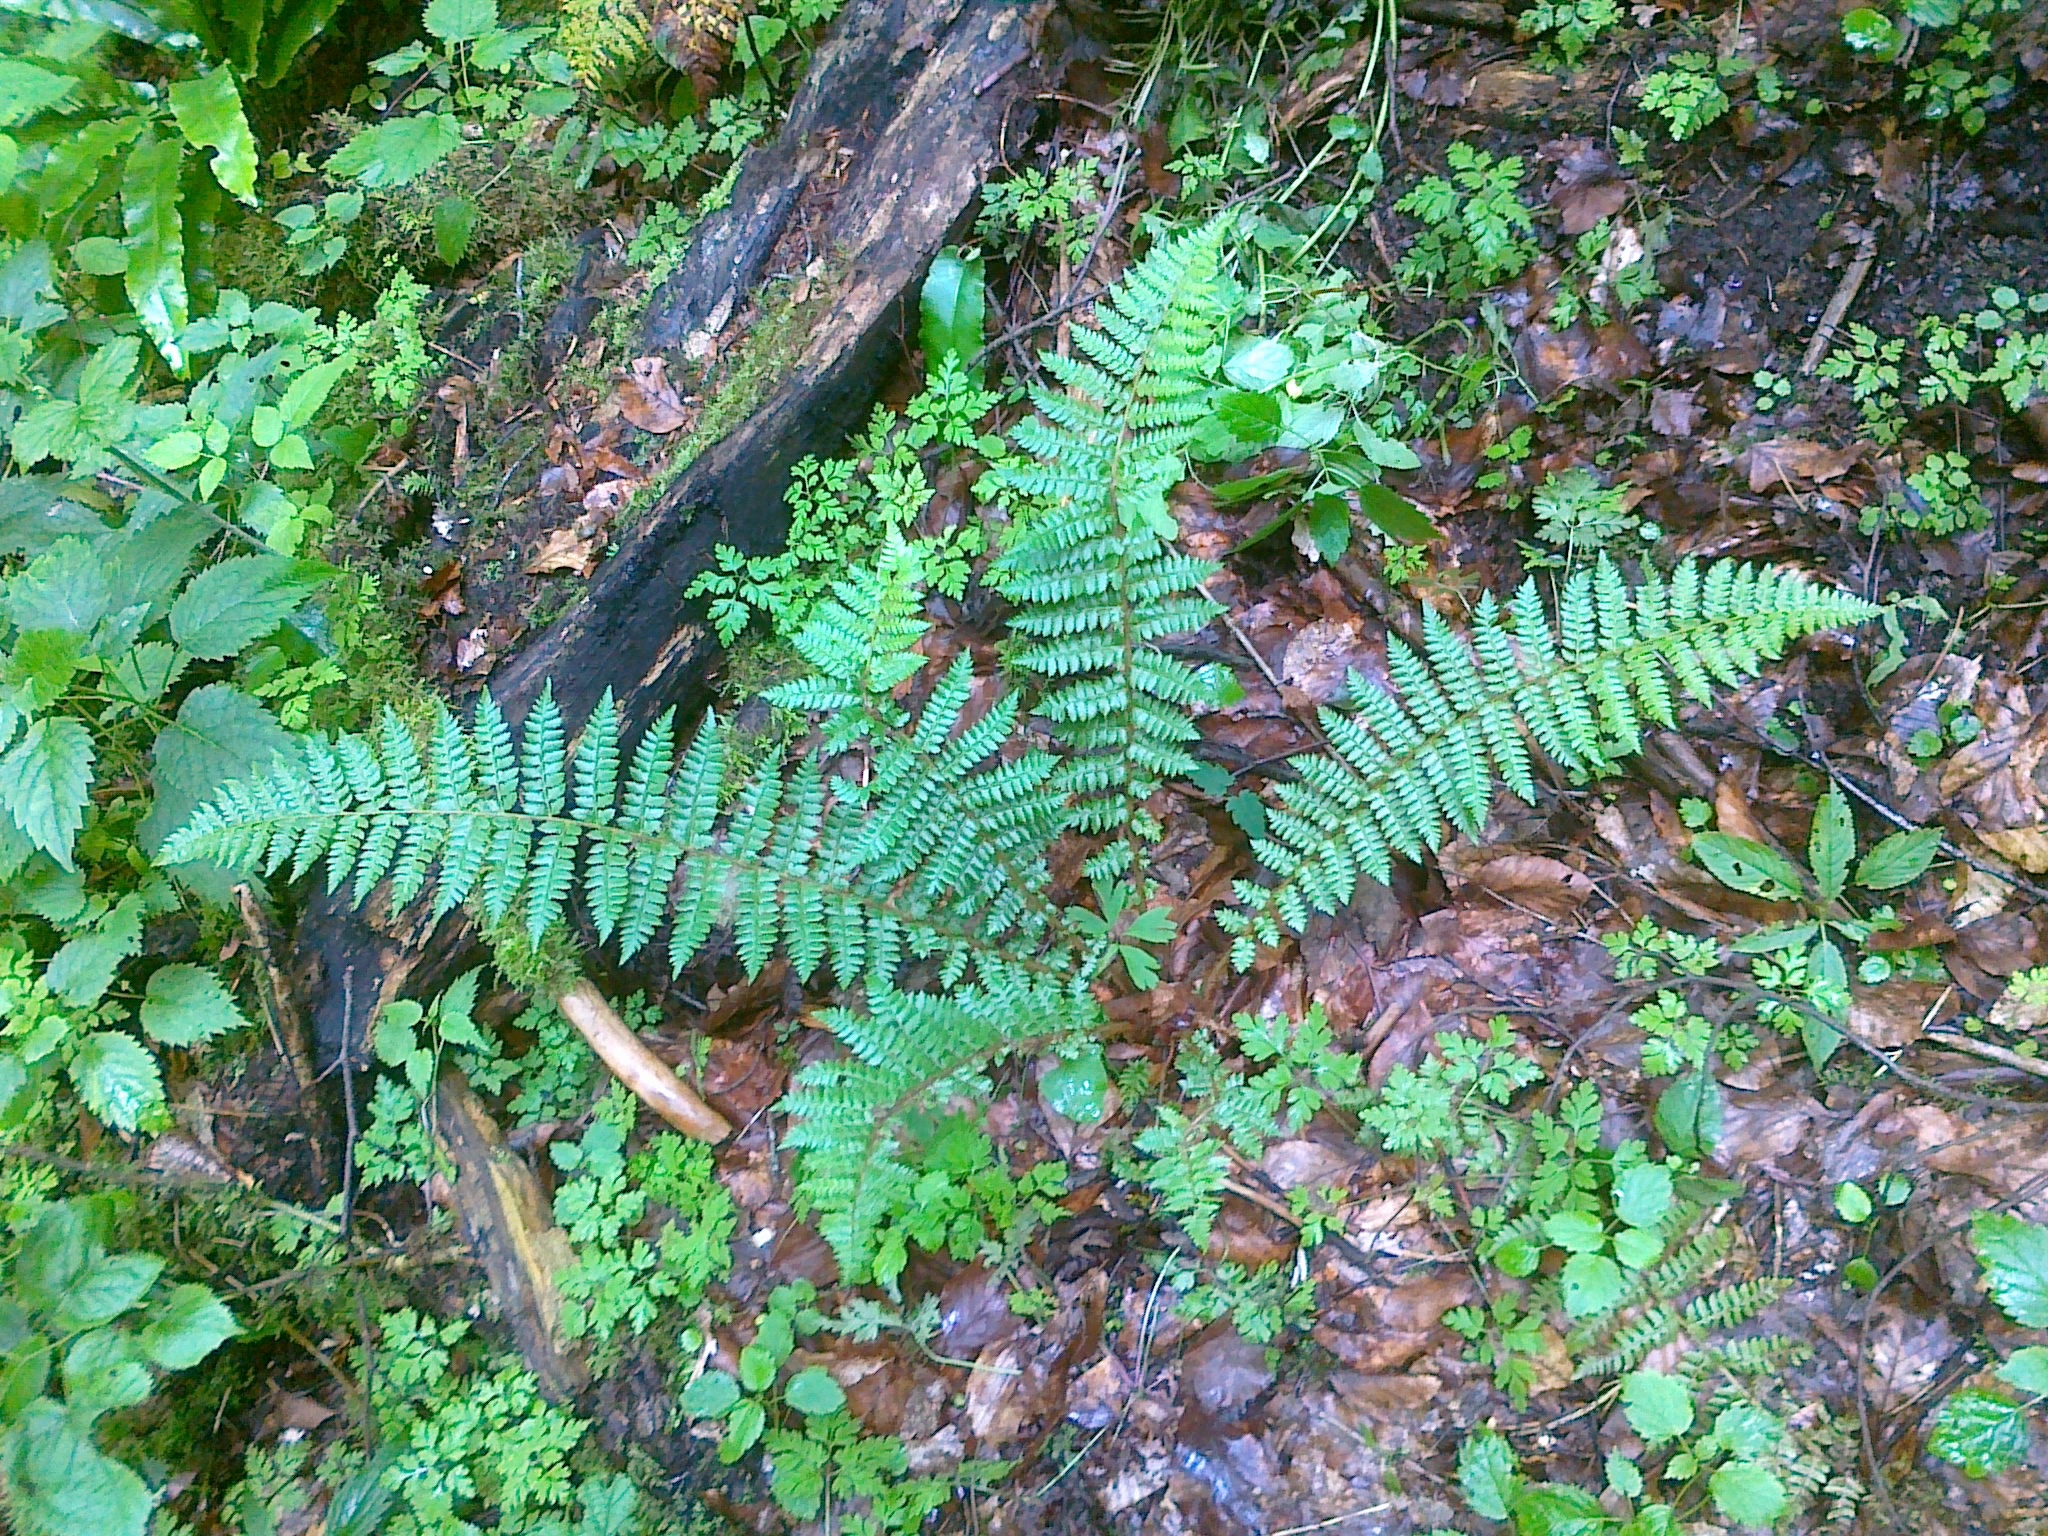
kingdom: Plantae
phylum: Tracheophyta
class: Polypodiopsida
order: Polypodiales
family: Dryopteridaceae
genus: Polystichum
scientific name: Polystichum braunii
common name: Braun's holly fern
